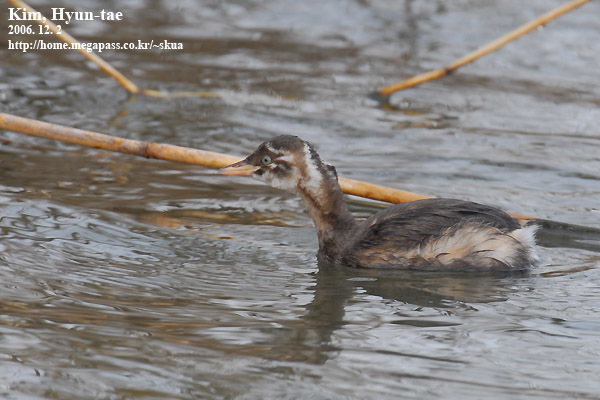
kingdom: Animalia
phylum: Chordata
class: Aves
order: Podicipediformes
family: Podicipedidae
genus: Tachybaptus
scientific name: Tachybaptus ruficollis
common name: Little grebe
